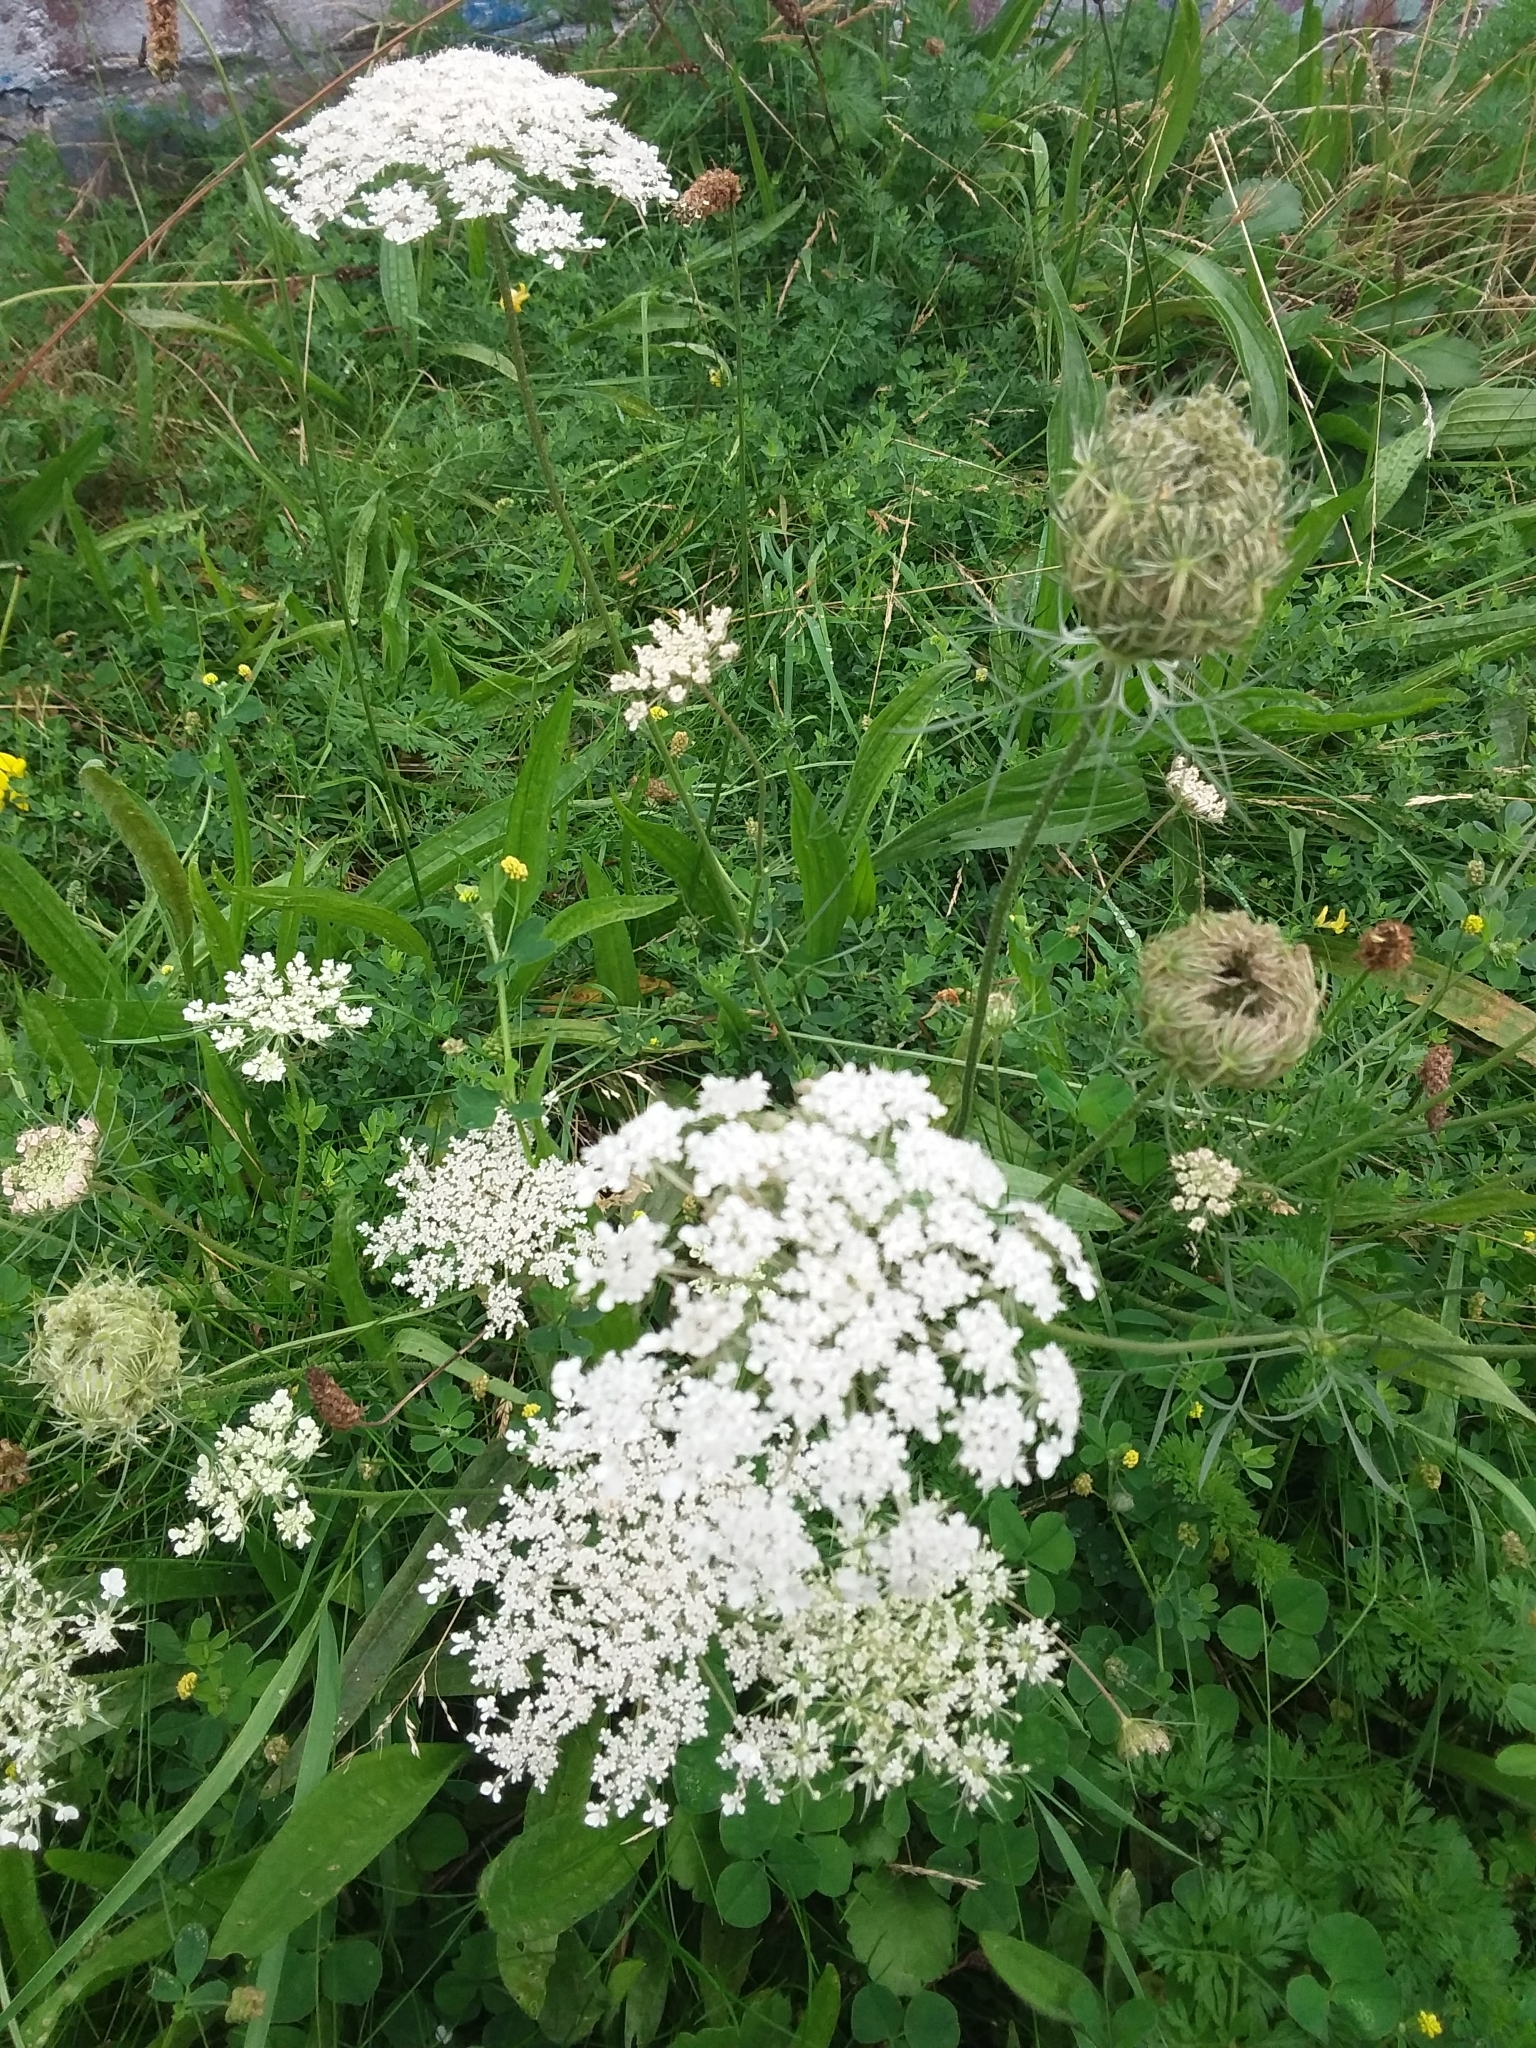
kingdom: Plantae
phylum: Tracheophyta
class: Magnoliopsida
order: Apiales
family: Apiaceae
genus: Daucus
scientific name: Daucus carota
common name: Wild carrot
